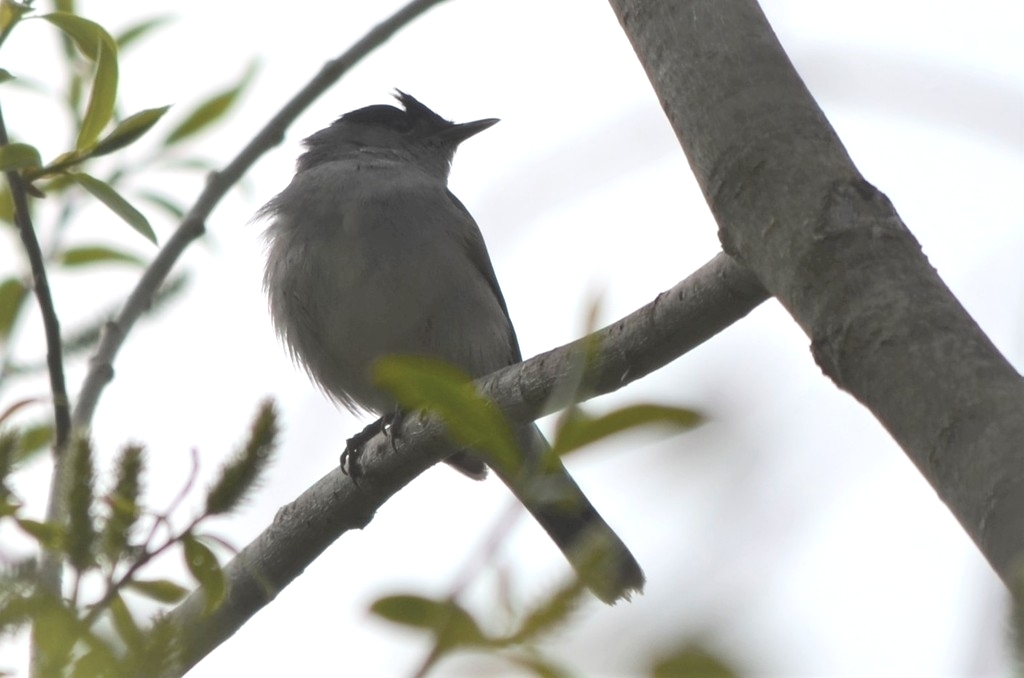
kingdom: Animalia
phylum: Chordata
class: Aves
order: Passeriformes
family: Sylviidae
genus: Sylvia
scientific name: Sylvia atricapilla
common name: Eurasian blackcap
